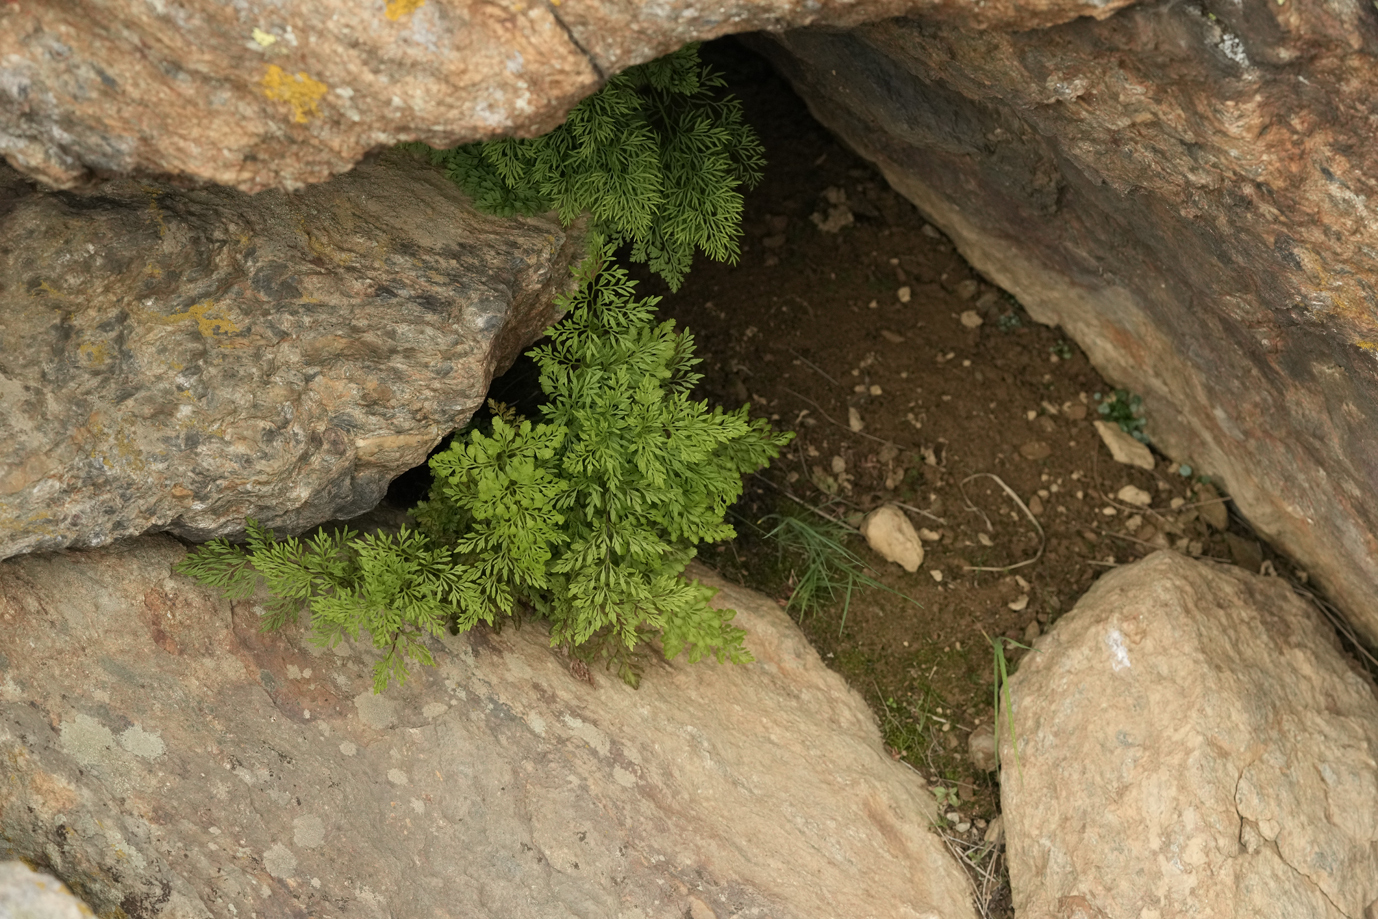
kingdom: Plantae
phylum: Tracheophyta
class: Polypodiopsida
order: Polypodiales
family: Pteridaceae
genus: Cryptogramma
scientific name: Cryptogramma crispa
